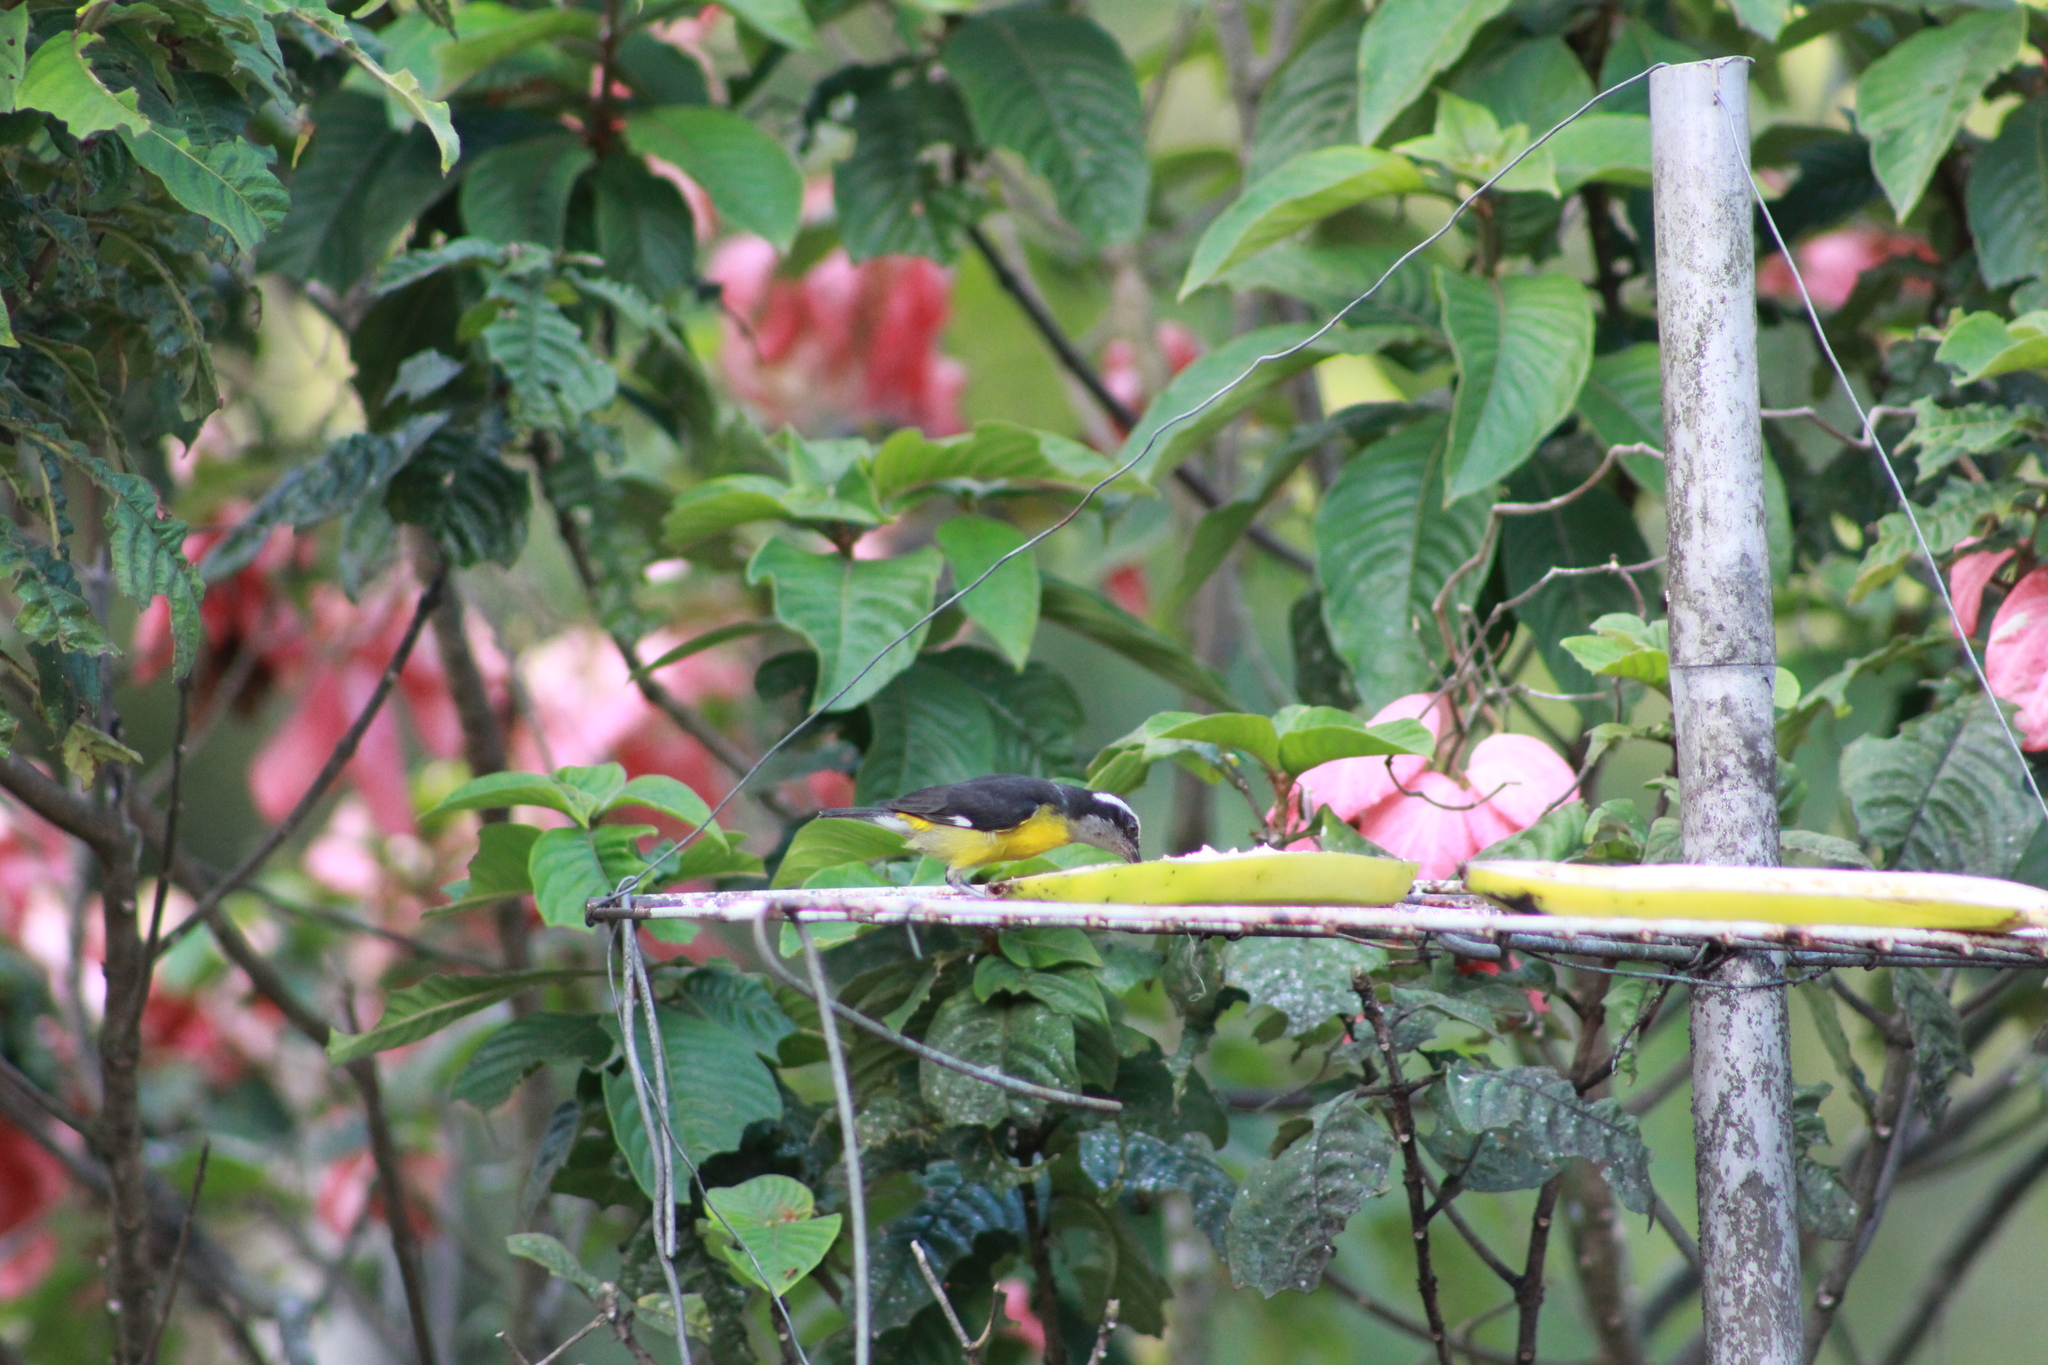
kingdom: Animalia
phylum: Chordata
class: Aves
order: Passeriformes
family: Thraupidae
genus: Coereba
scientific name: Coereba flaveola
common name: Bananaquit
